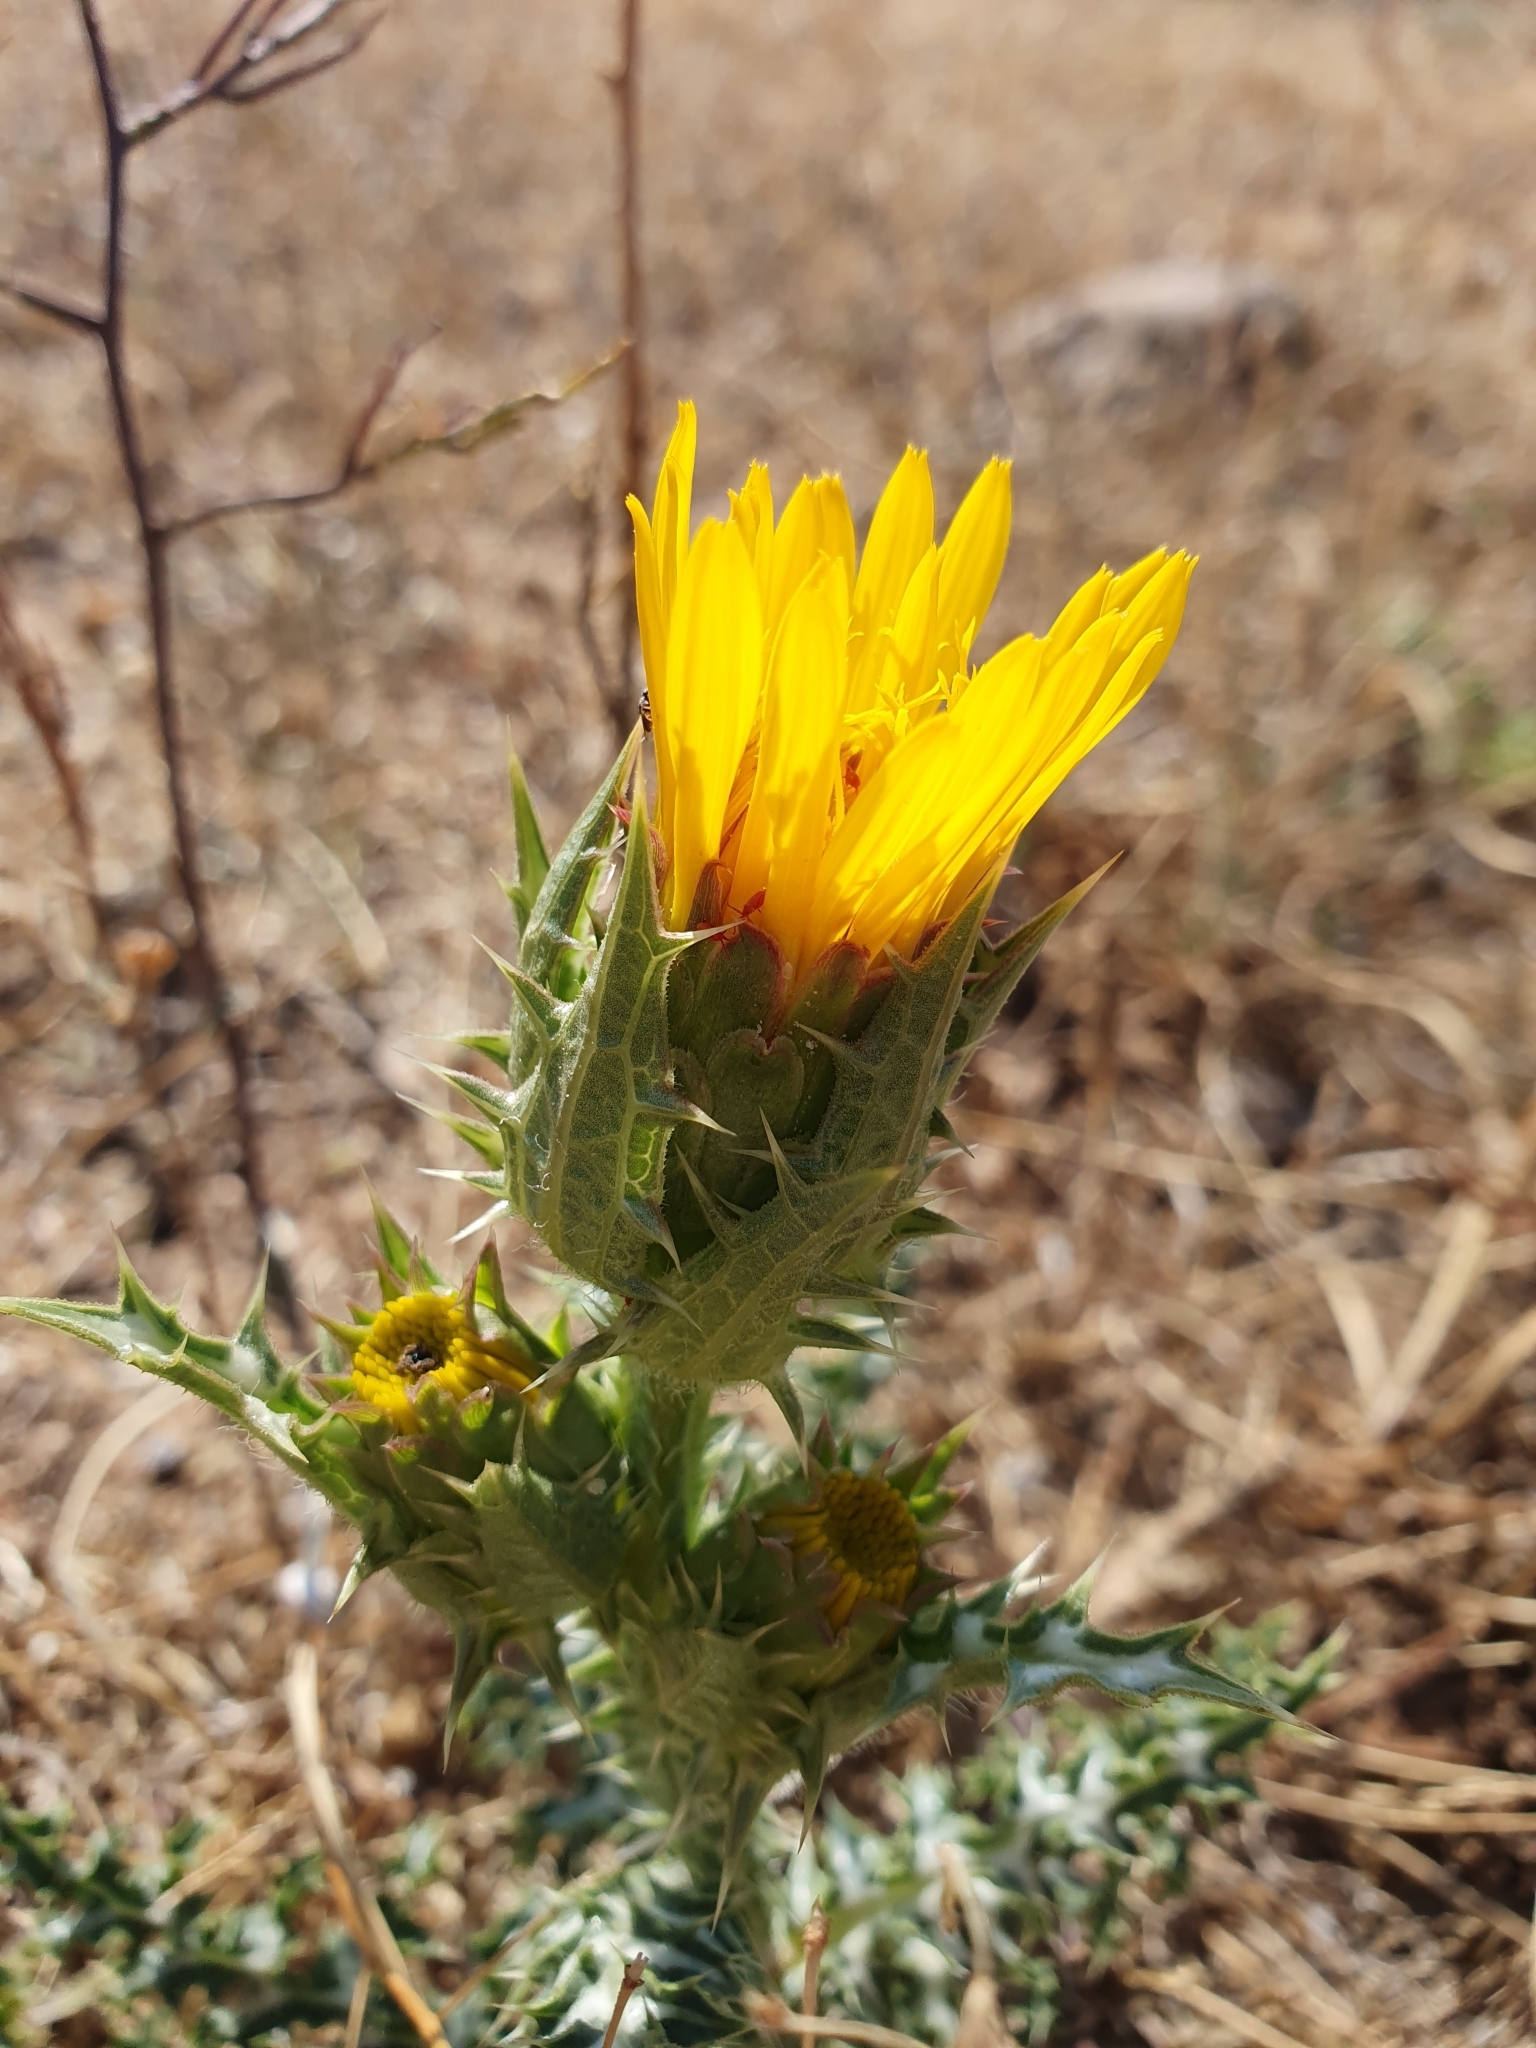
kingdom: Plantae
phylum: Tracheophyta
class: Magnoliopsida
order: Asterales
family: Asteraceae
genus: Scolymus
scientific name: Scolymus grandiflorus
